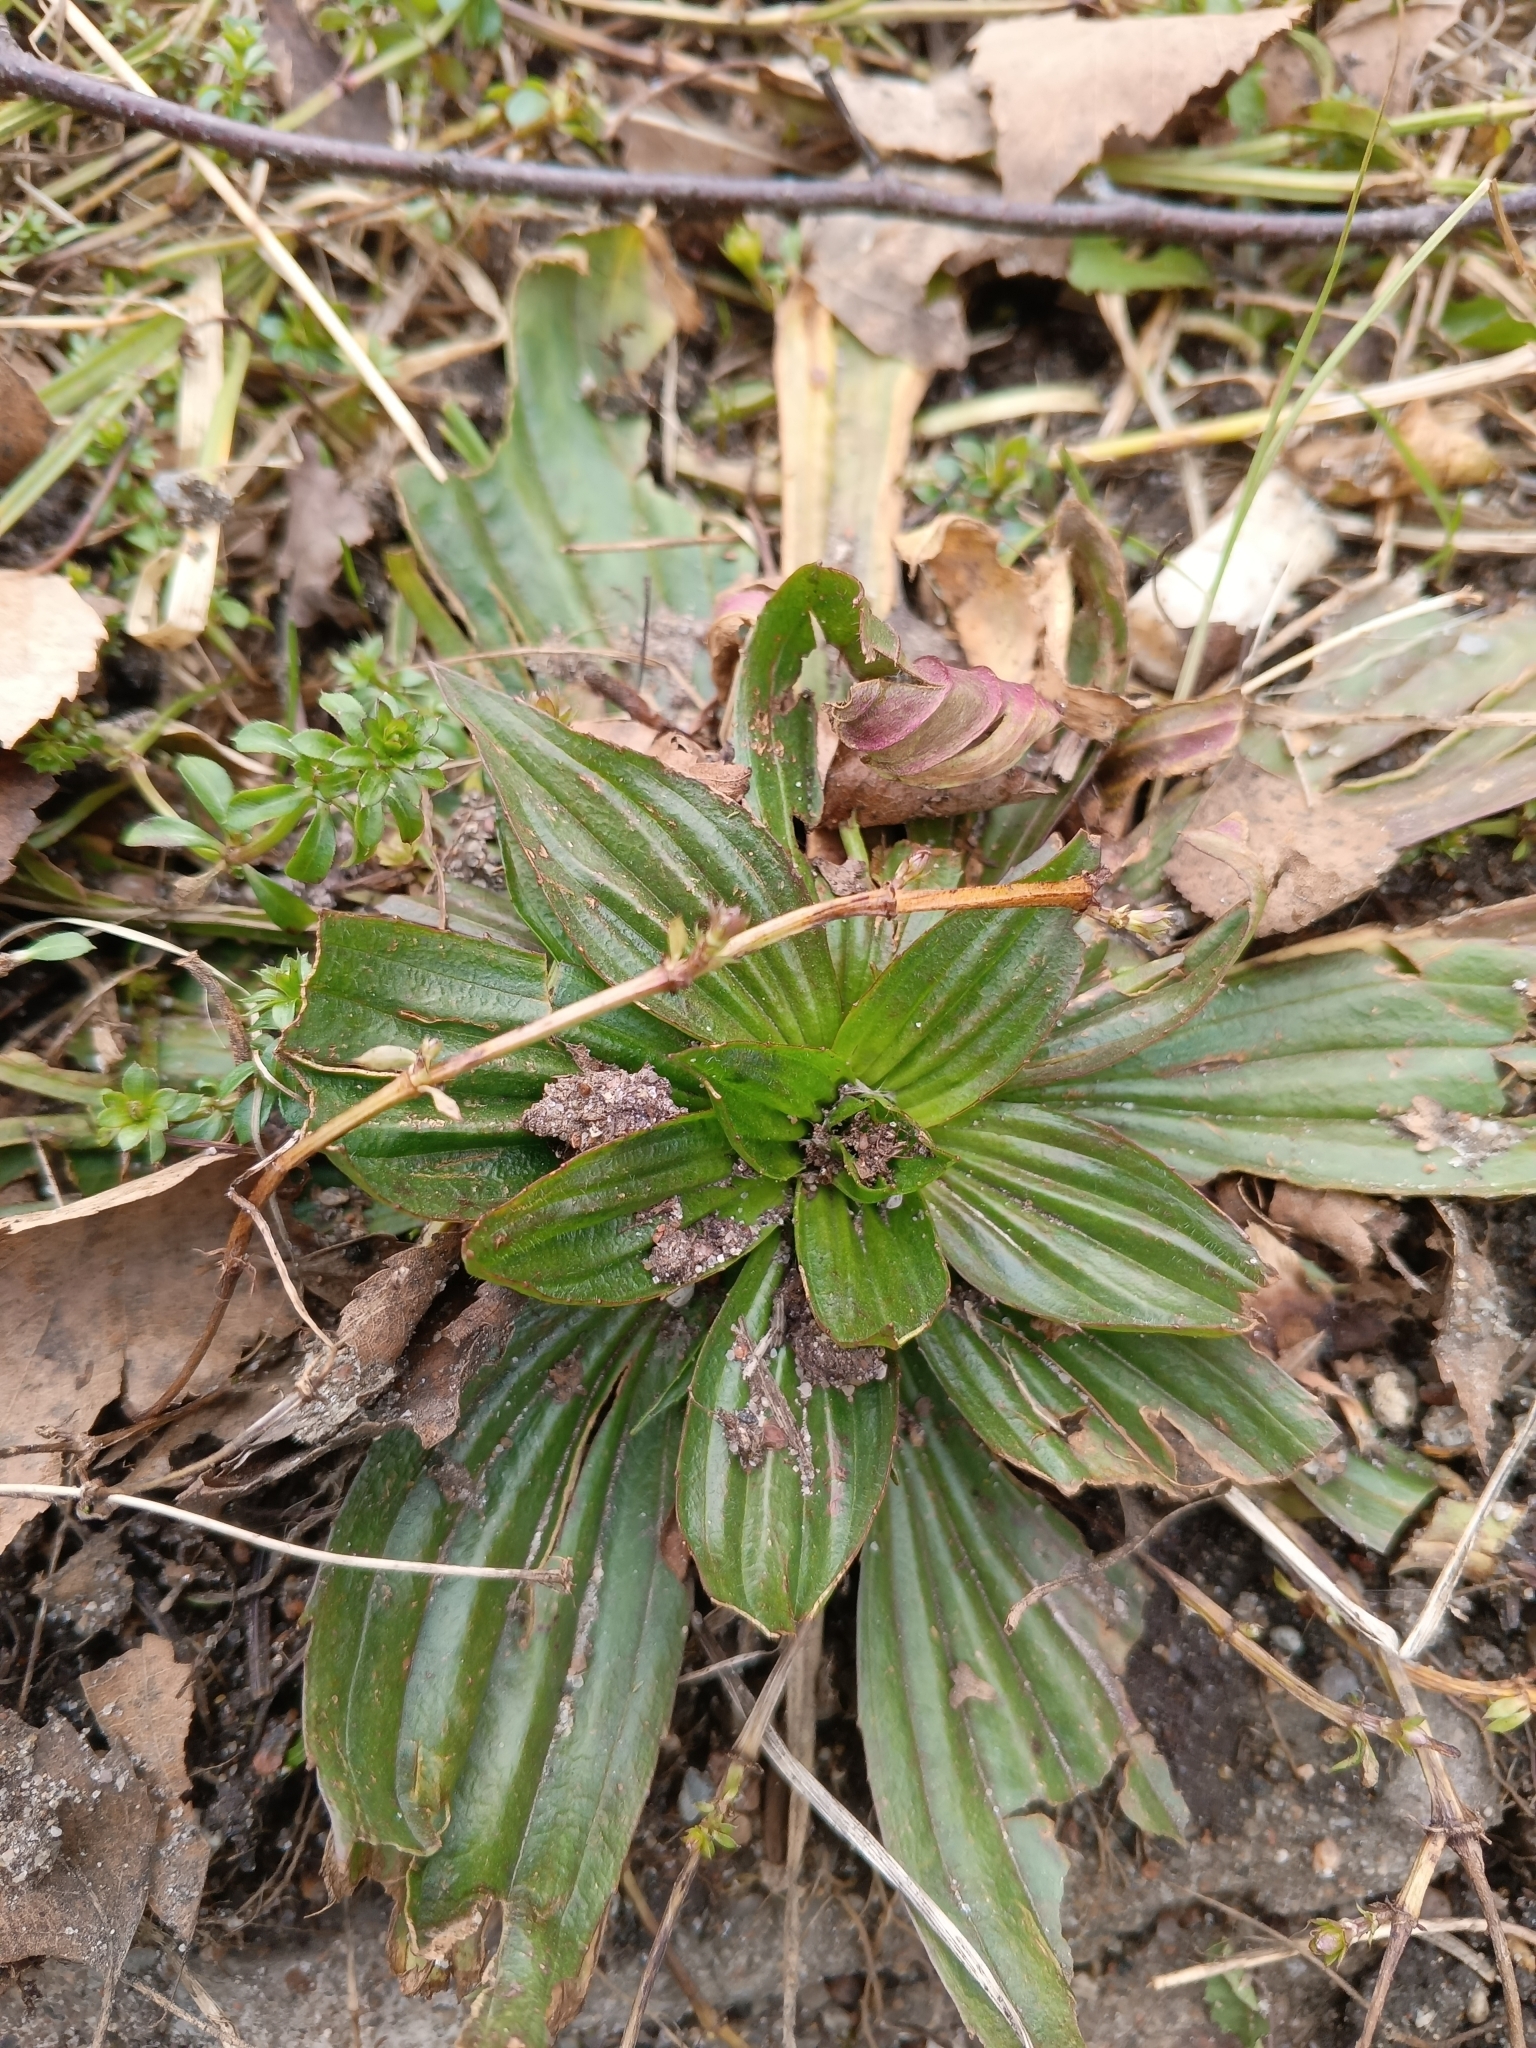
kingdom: Plantae
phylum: Tracheophyta
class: Magnoliopsida
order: Lamiales
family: Plantaginaceae
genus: Plantago
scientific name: Plantago lanceolata
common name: Ribwort plantain
